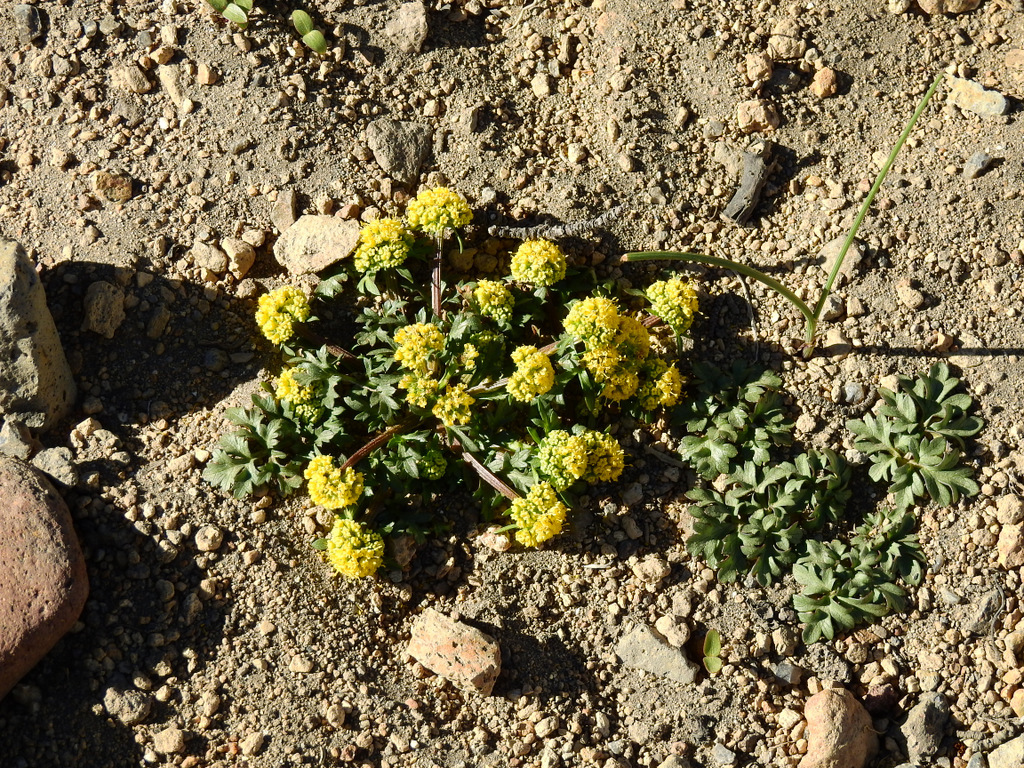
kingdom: Plantae
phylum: Tracheophyta
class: Magnoliopsida
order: Apiales
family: Apiaceae
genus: Sanicula
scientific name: Sanicula graveolens
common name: Sierra sanicle
